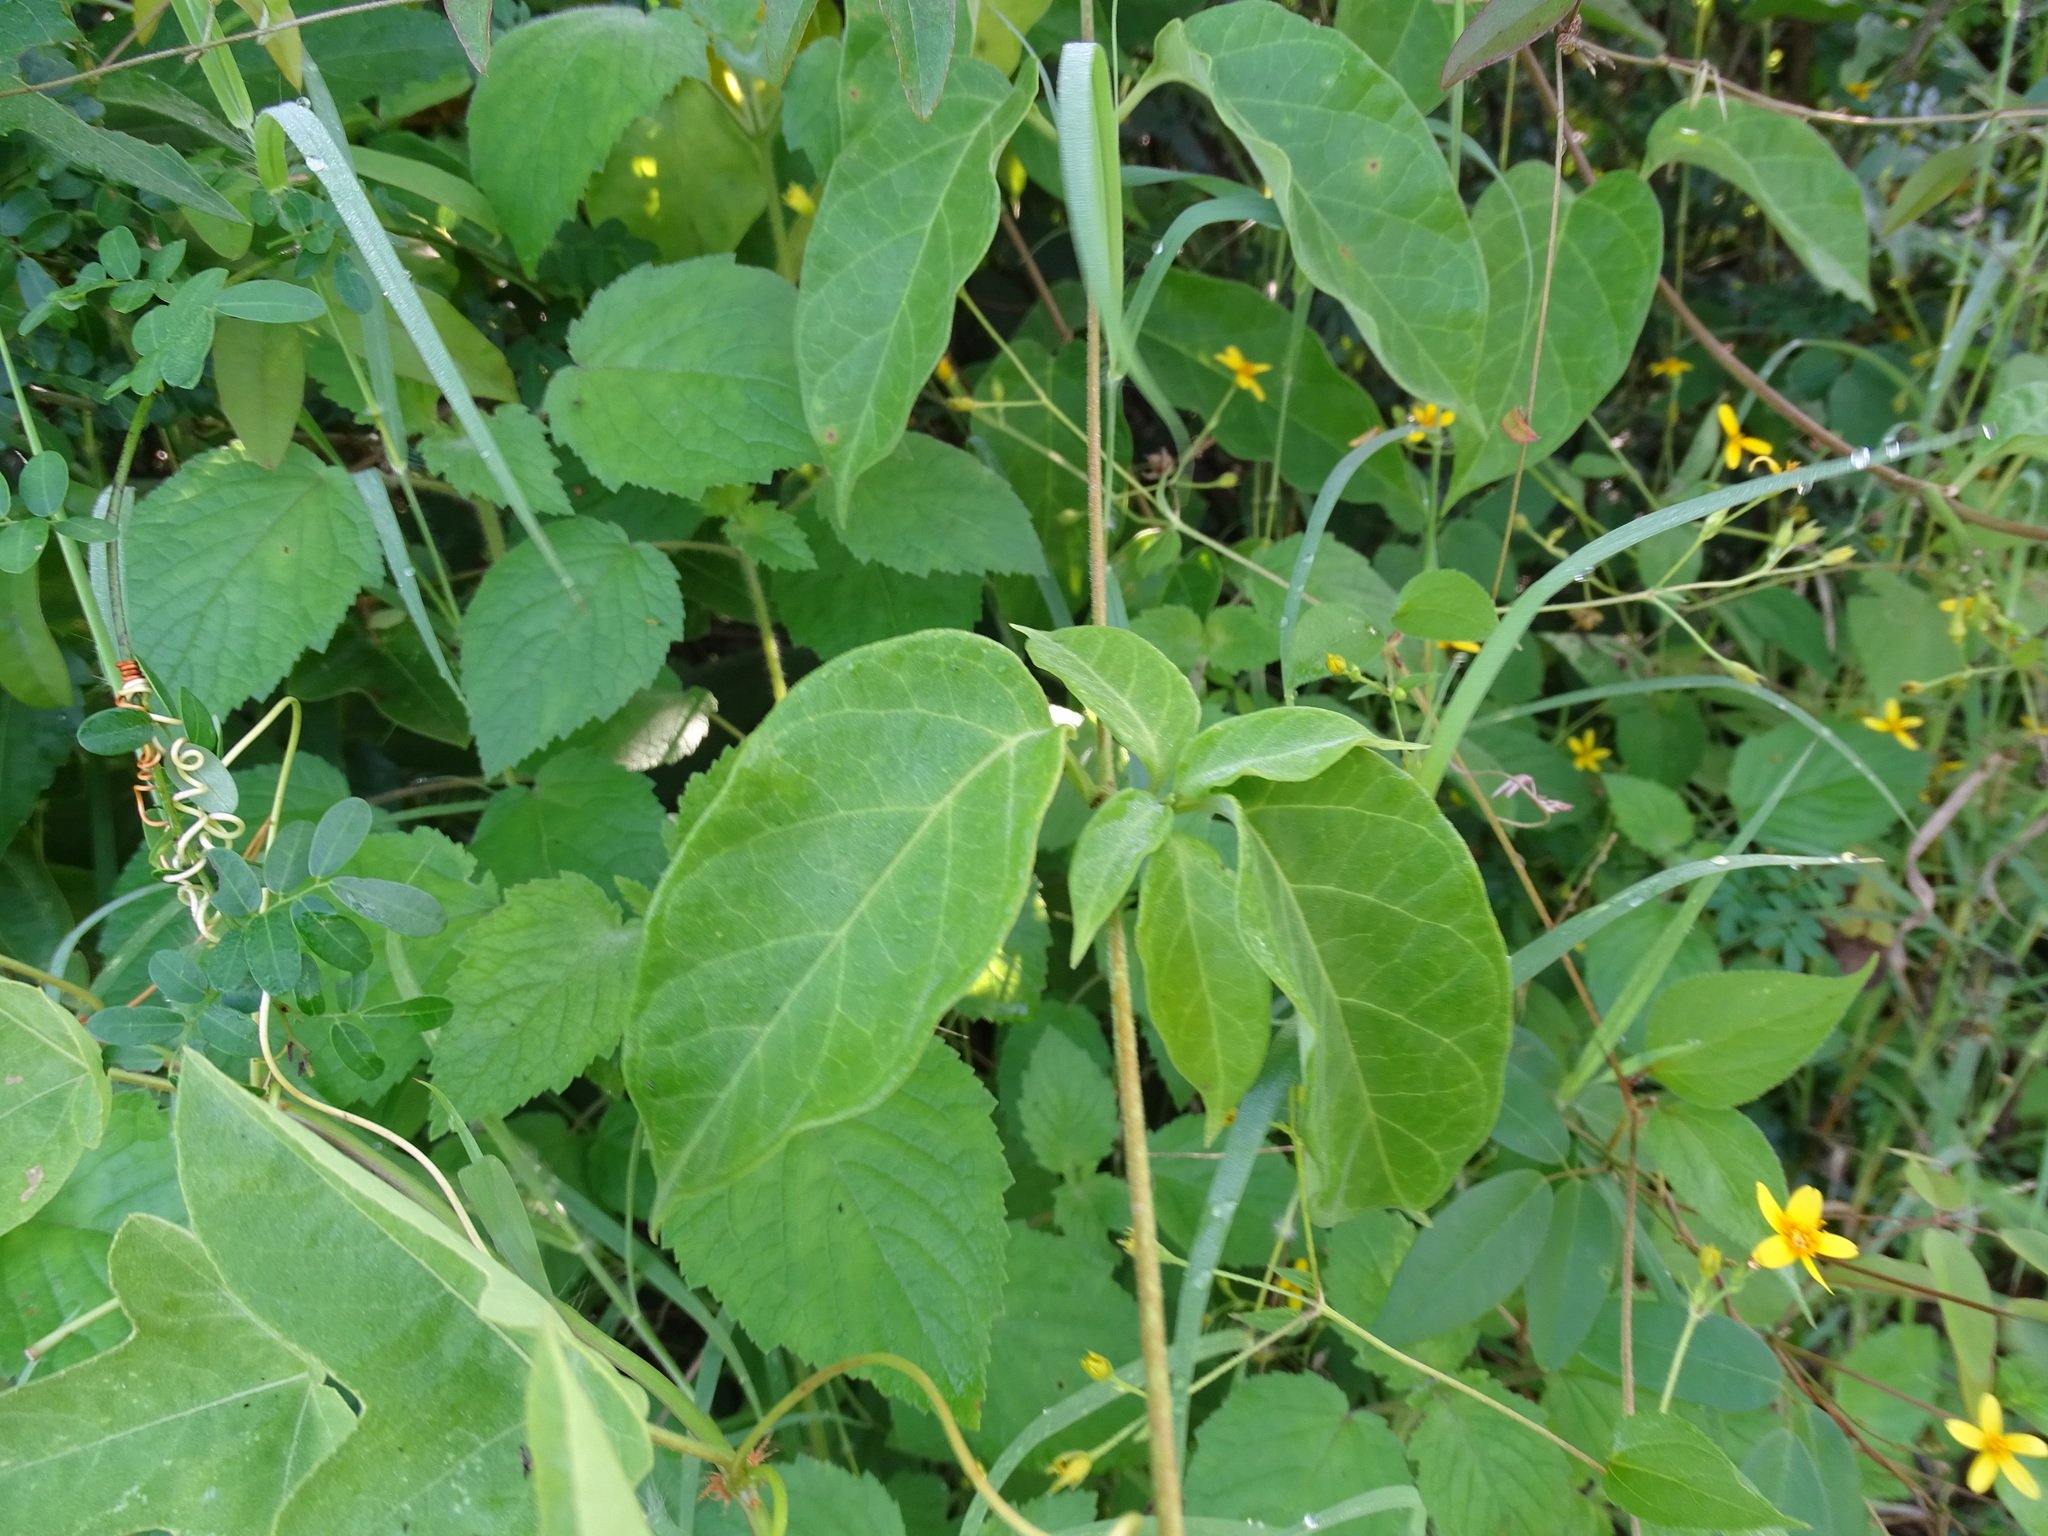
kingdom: Plantae
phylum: Tracheophyta
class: Magnoliopsida
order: Gentianales
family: Apocynaceae
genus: Echites
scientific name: Echites panduratus
